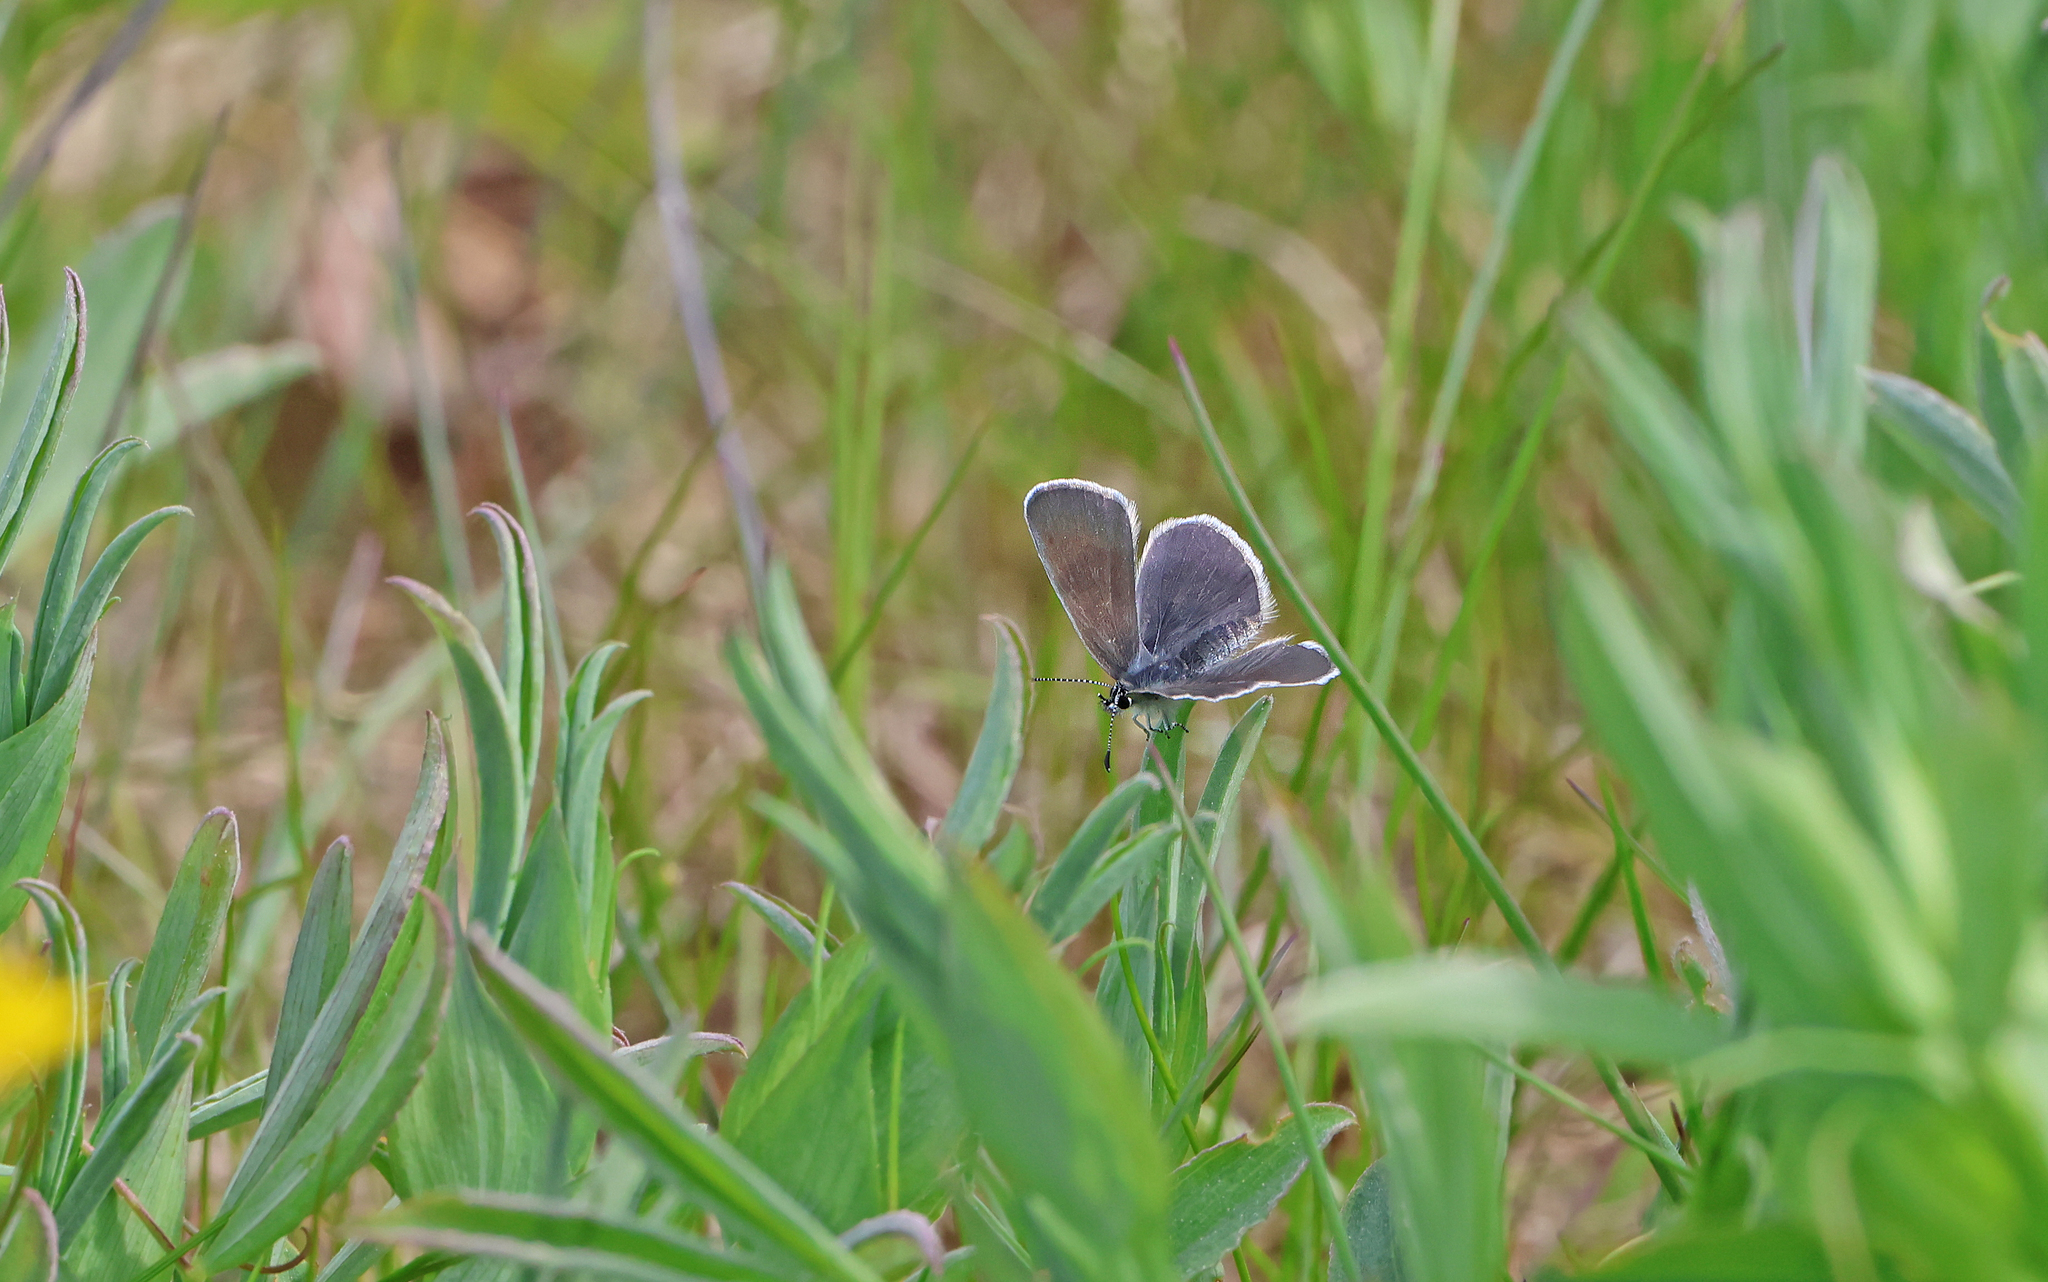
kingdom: Animalia
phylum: Arthropoda
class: Insecta
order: Lepidoptera
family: Lycaenidae
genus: Cupido
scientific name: Cupido minimus
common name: Small blue
